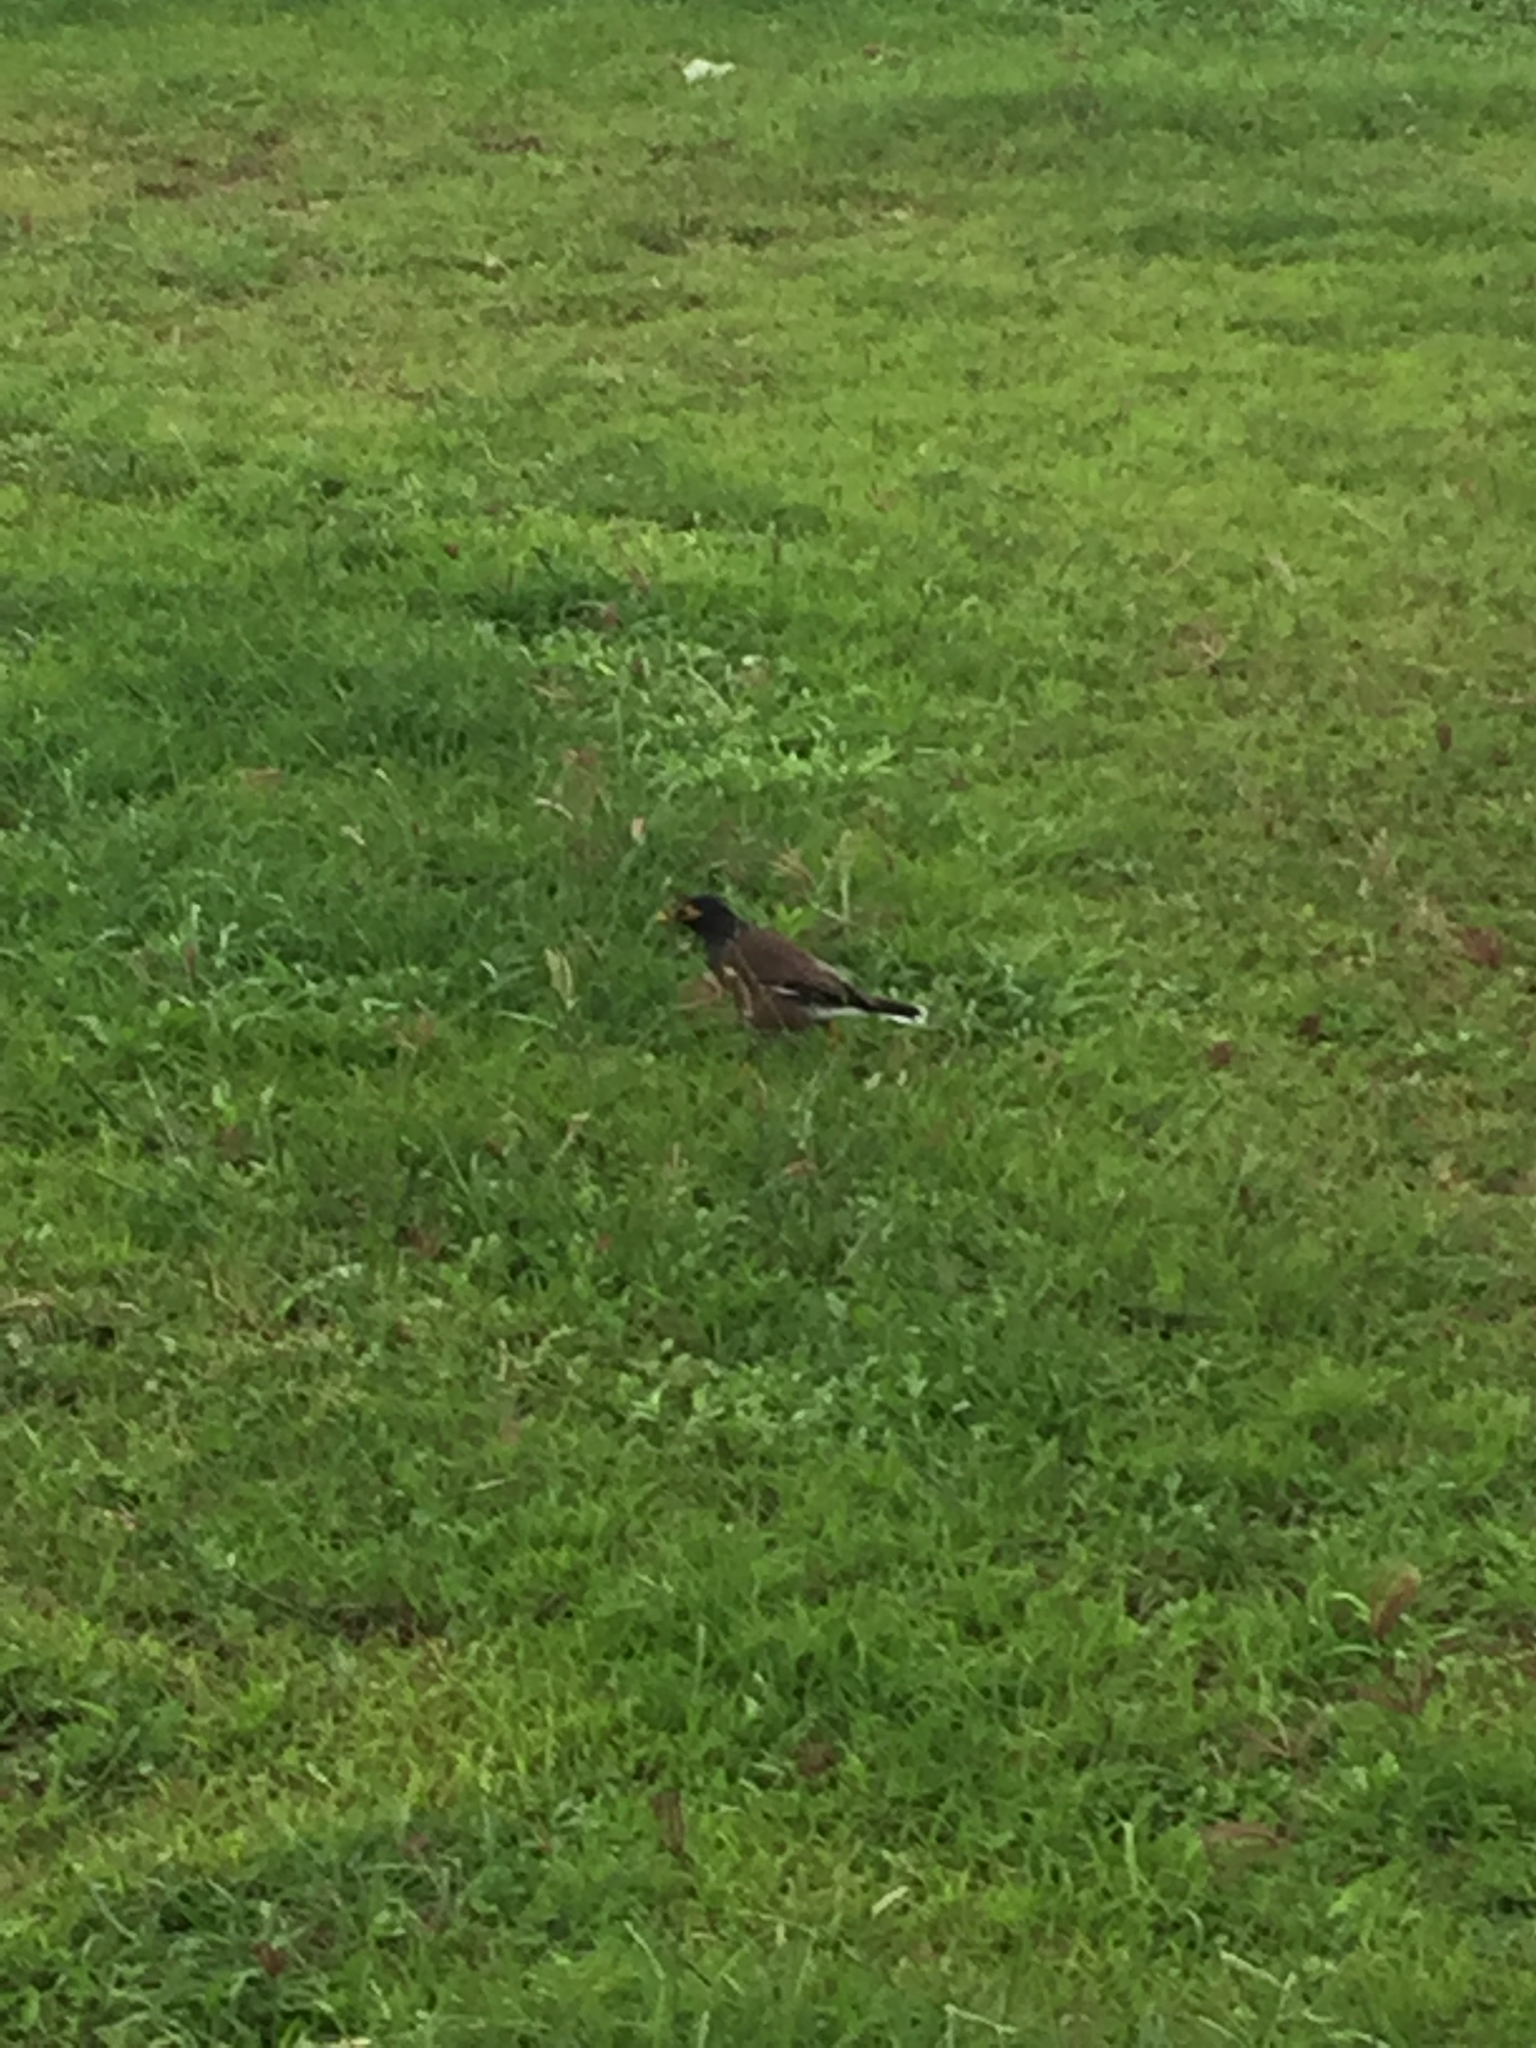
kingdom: Animalia
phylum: Chordata
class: Aves
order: Passeriformes
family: Sturnidae
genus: Acridotheres
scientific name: Acridotheres tristis
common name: Common myna
